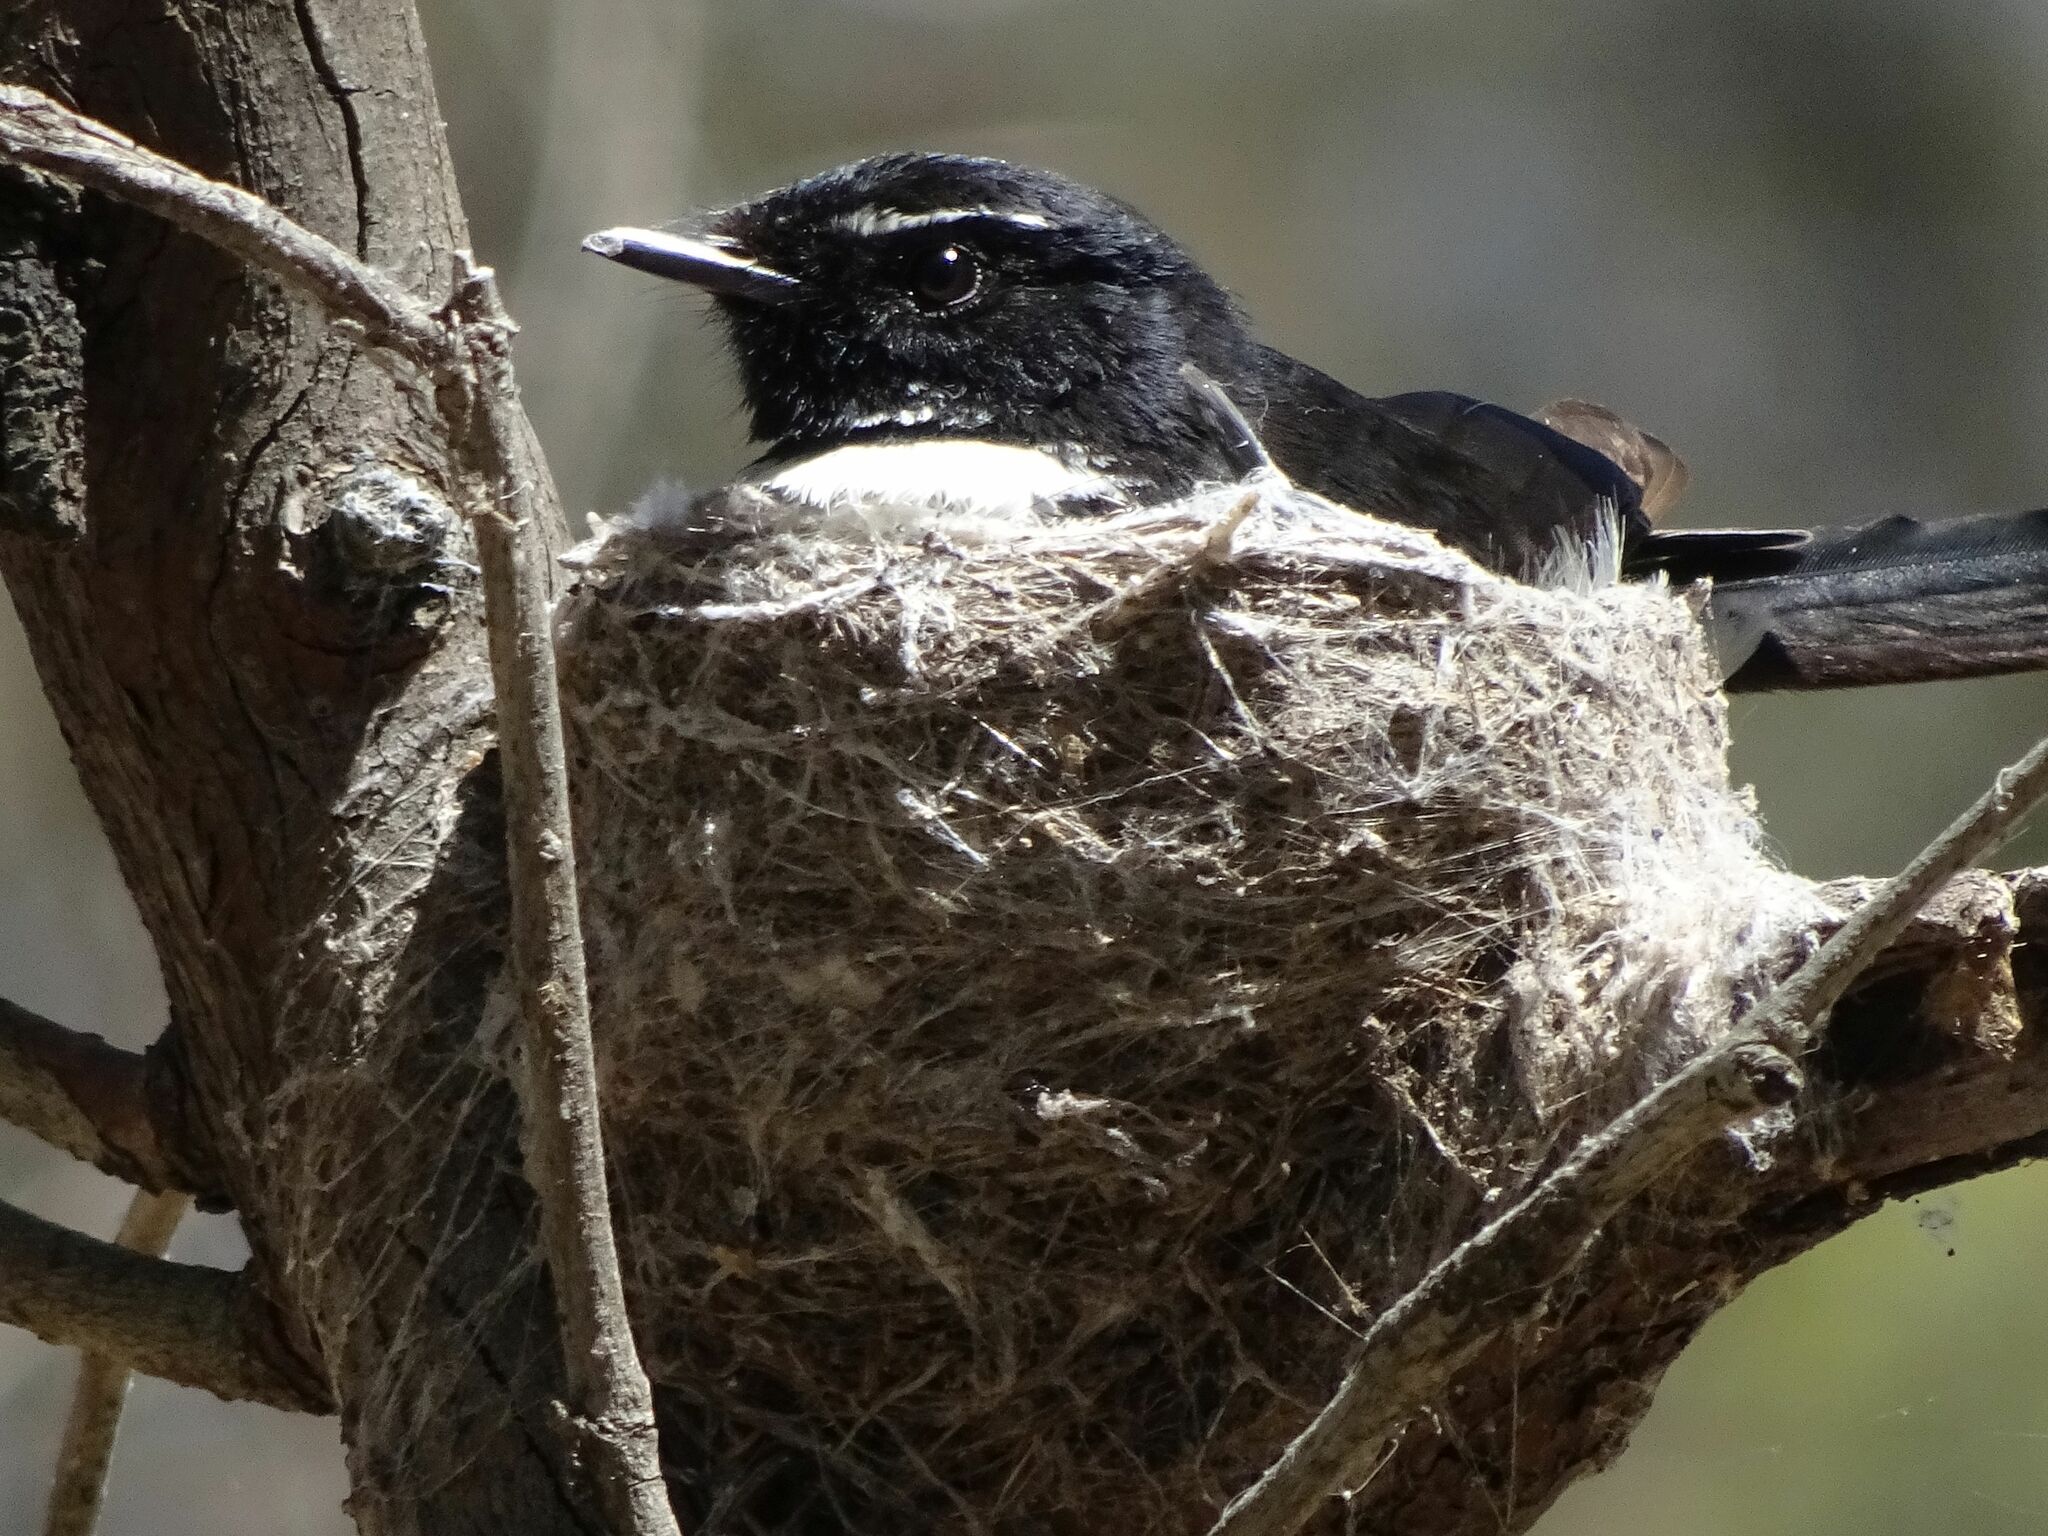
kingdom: Animalia
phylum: Chordata
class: Aves
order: Passeriformes
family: Rhipiduridae
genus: Rhipidura
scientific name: Rhipidura leucophrys
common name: Willie wagtail
